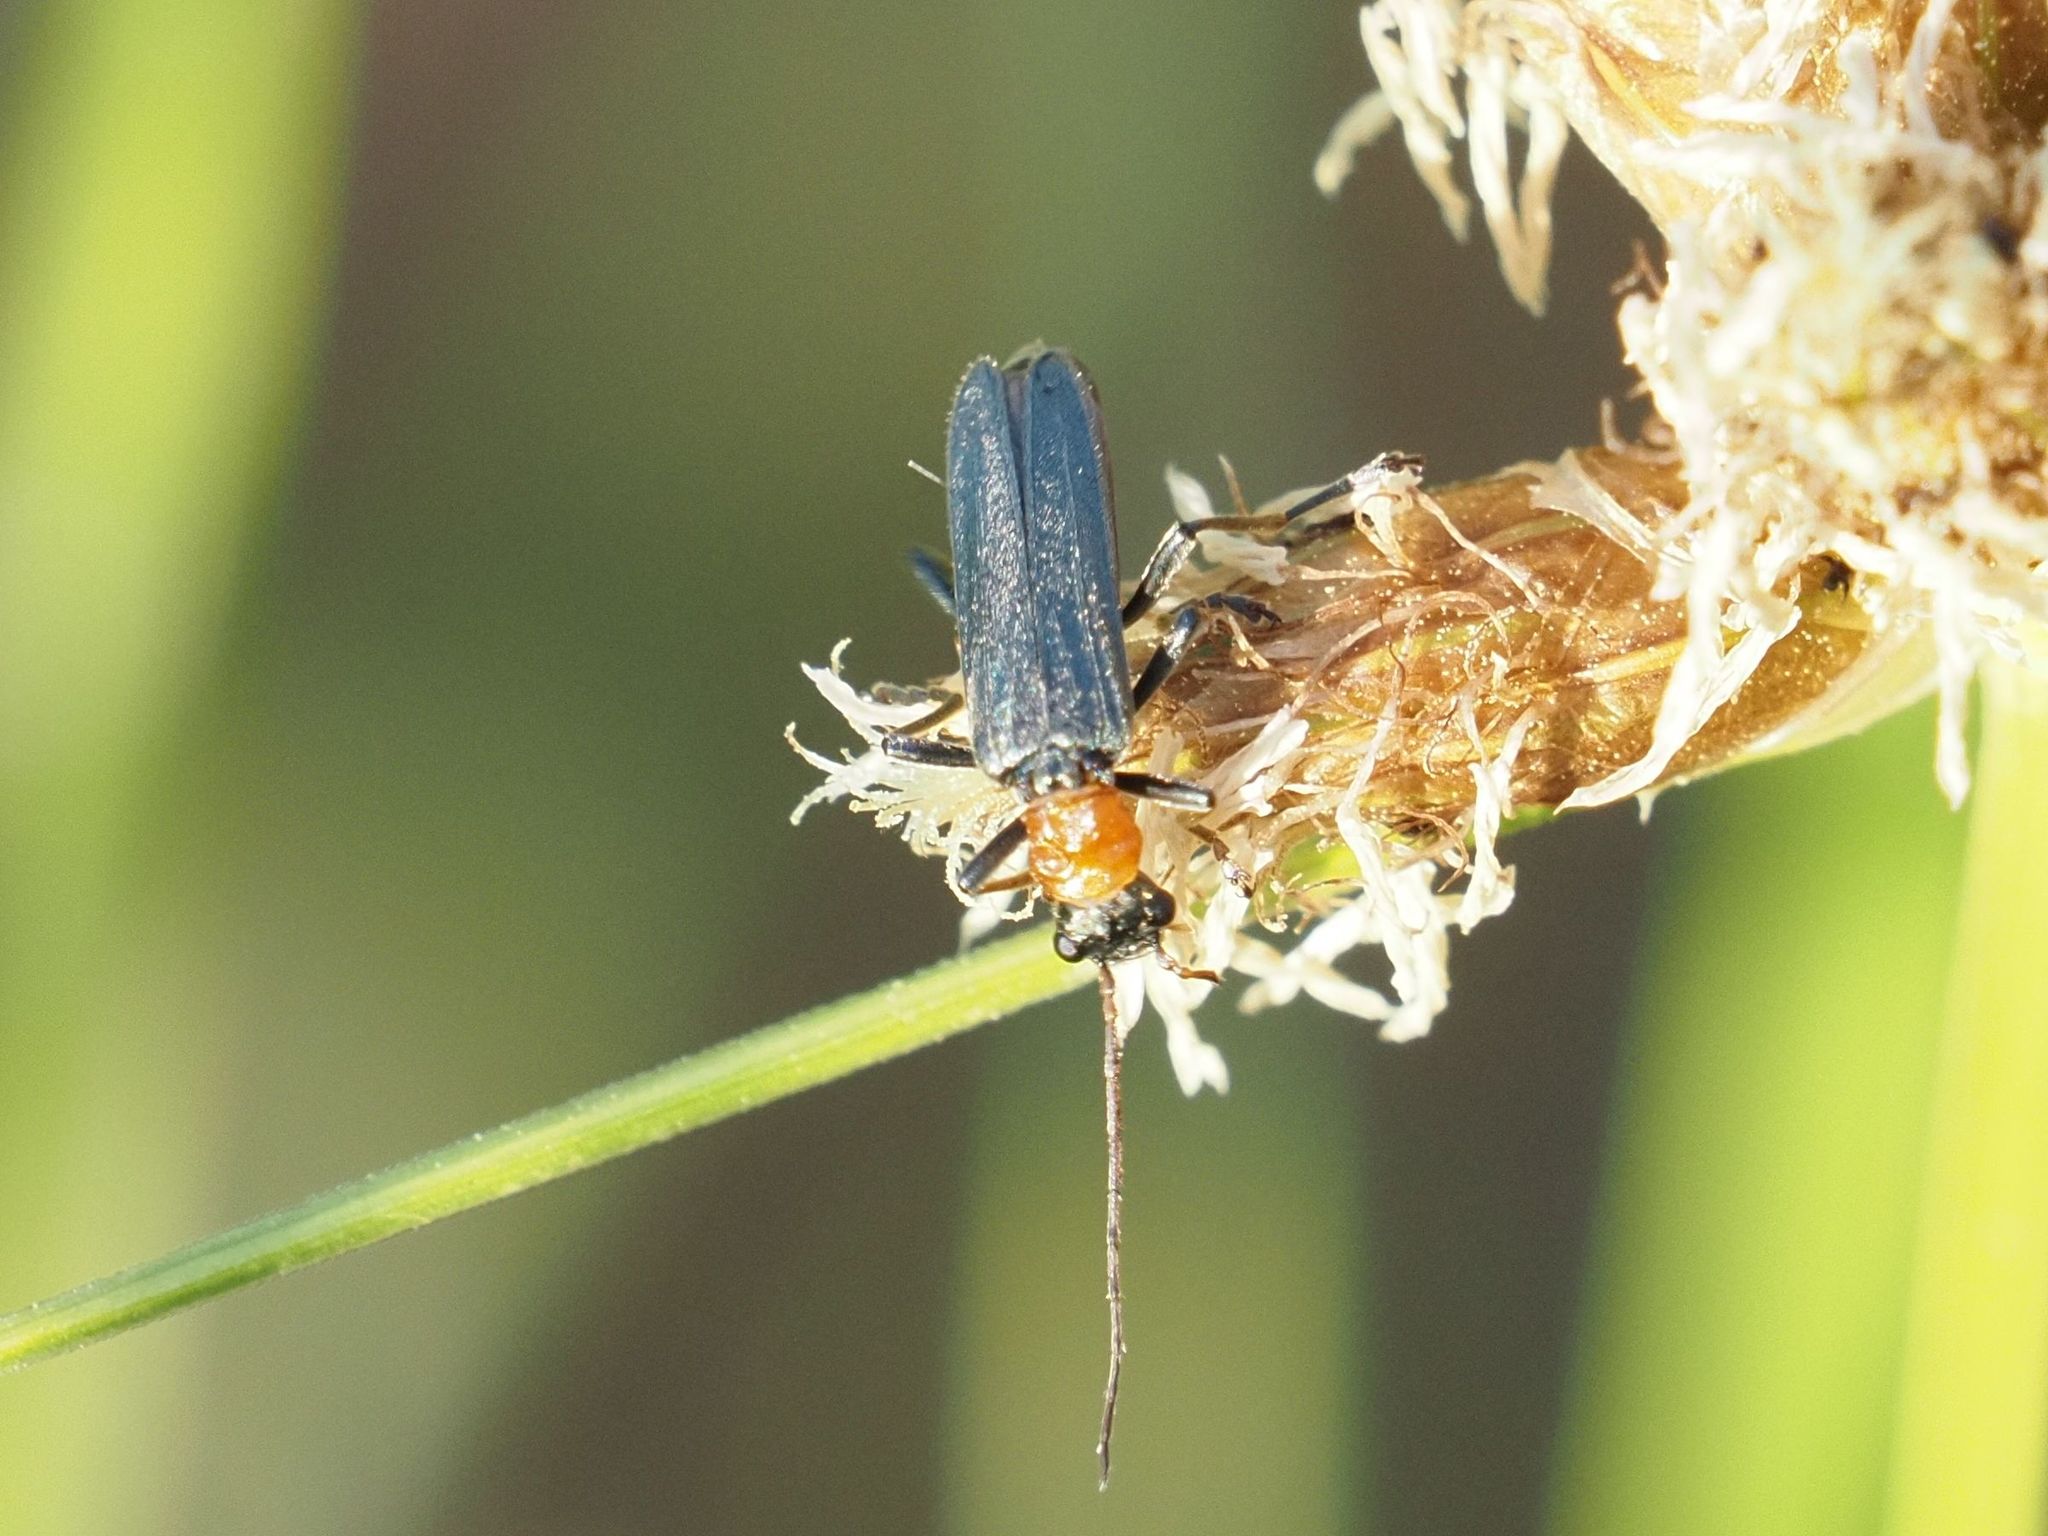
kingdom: Animalia
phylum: Arthropoda
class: Insecta
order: Coleoptera
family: Oedemeridae
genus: Oedemera
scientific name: Oedemera croceicollis
